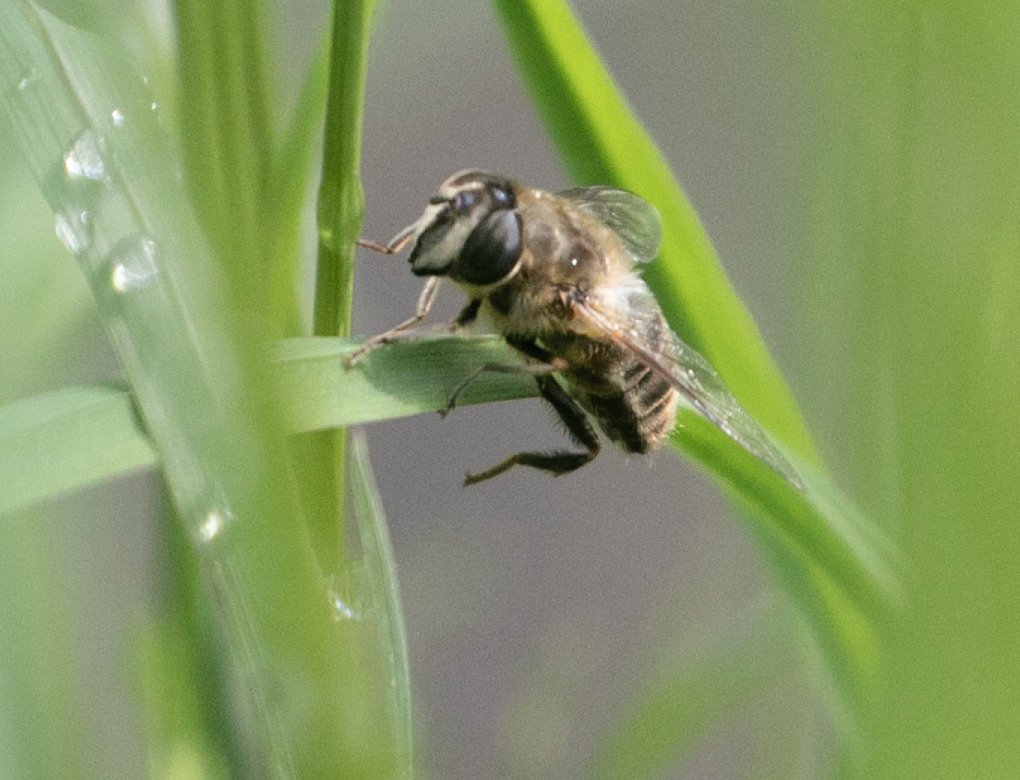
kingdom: Animalia
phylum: Arthropoda
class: Insecta
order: Diptera
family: Syrphidae
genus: Eristalis
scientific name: Eristalis tenax
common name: Drone fly
